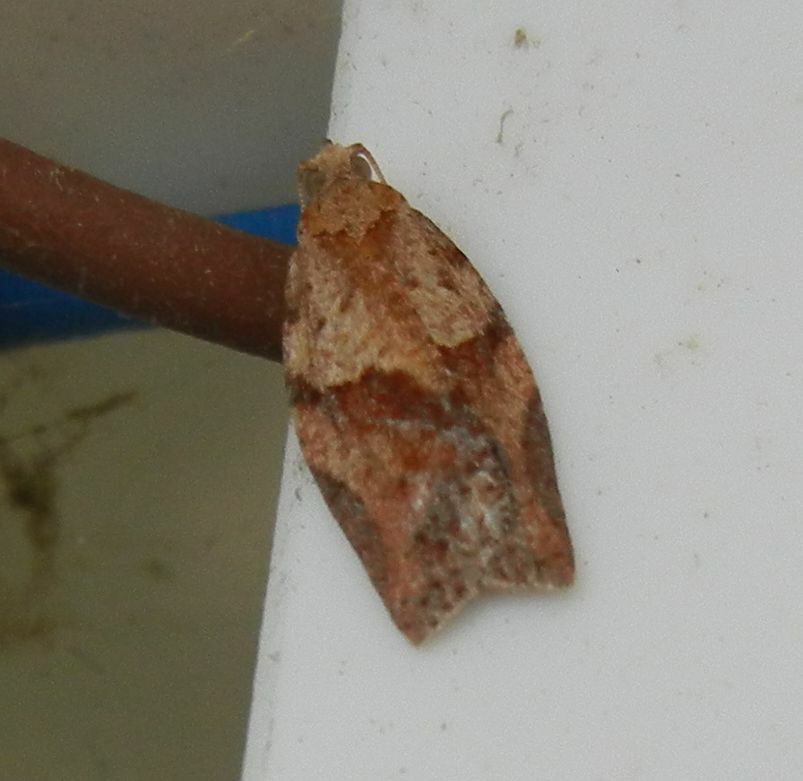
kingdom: Animalia
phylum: Arthropoda
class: Insecta
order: Lepidoptera
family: Tortricidae
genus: Epiphyas
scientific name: Epiphyas postvittana
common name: Light brown apple moth
